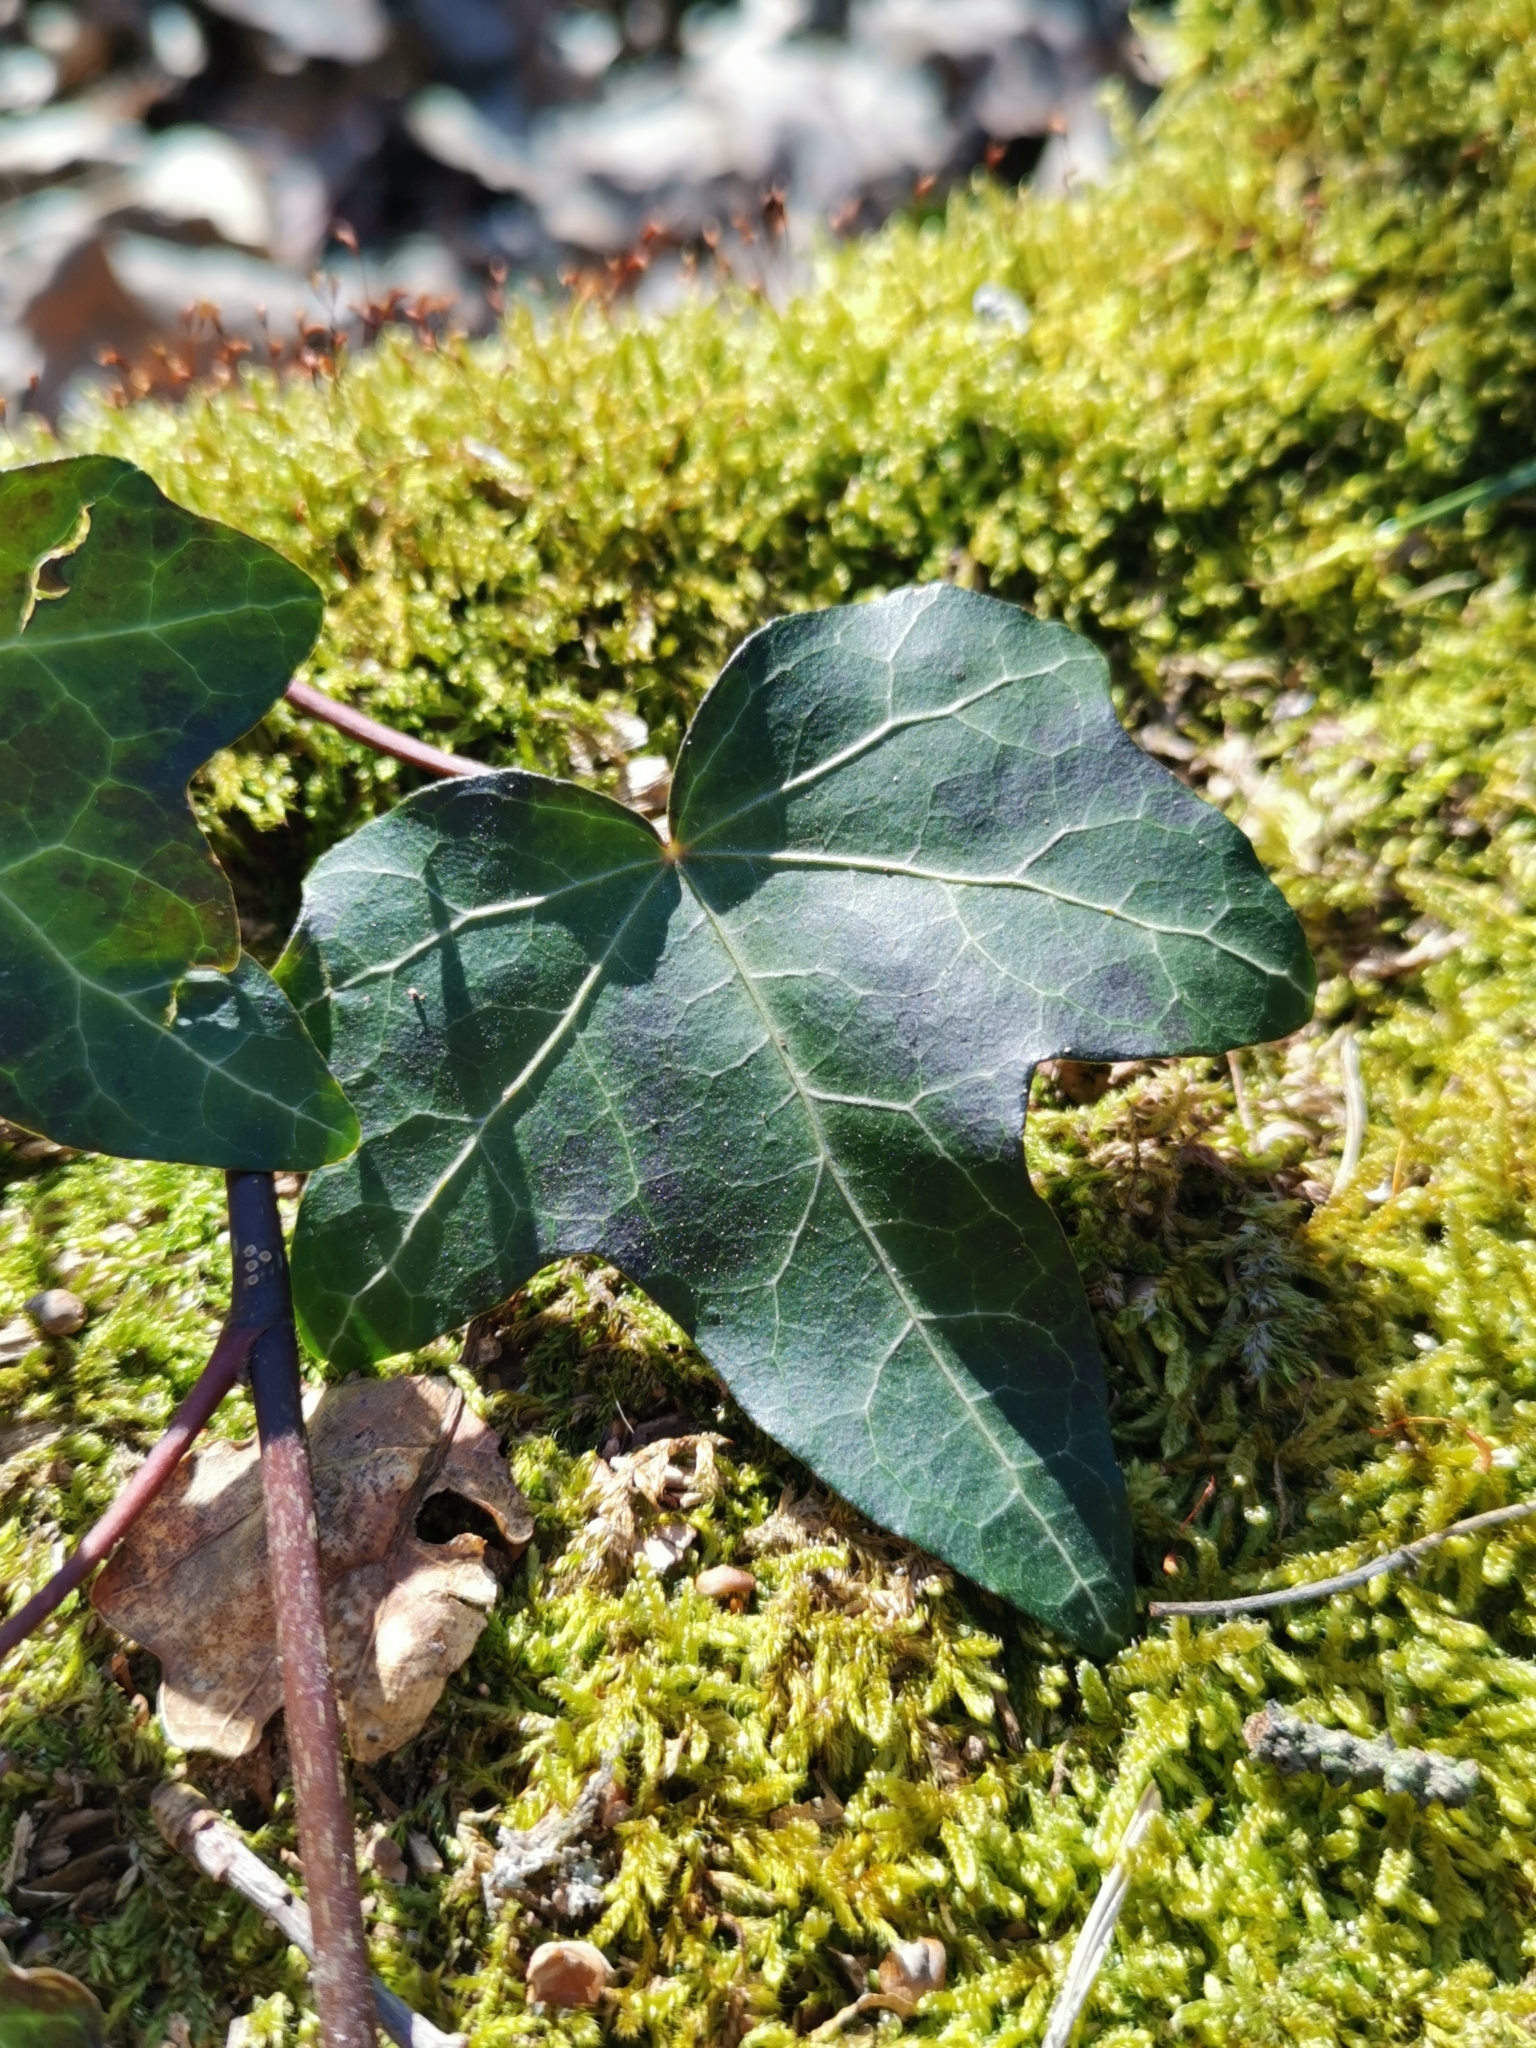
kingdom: Plantae
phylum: Tracheophyta
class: Magnoliopsida
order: Apiales
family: Araliaceae
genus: Hedera
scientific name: Hedera helix
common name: Ivy
